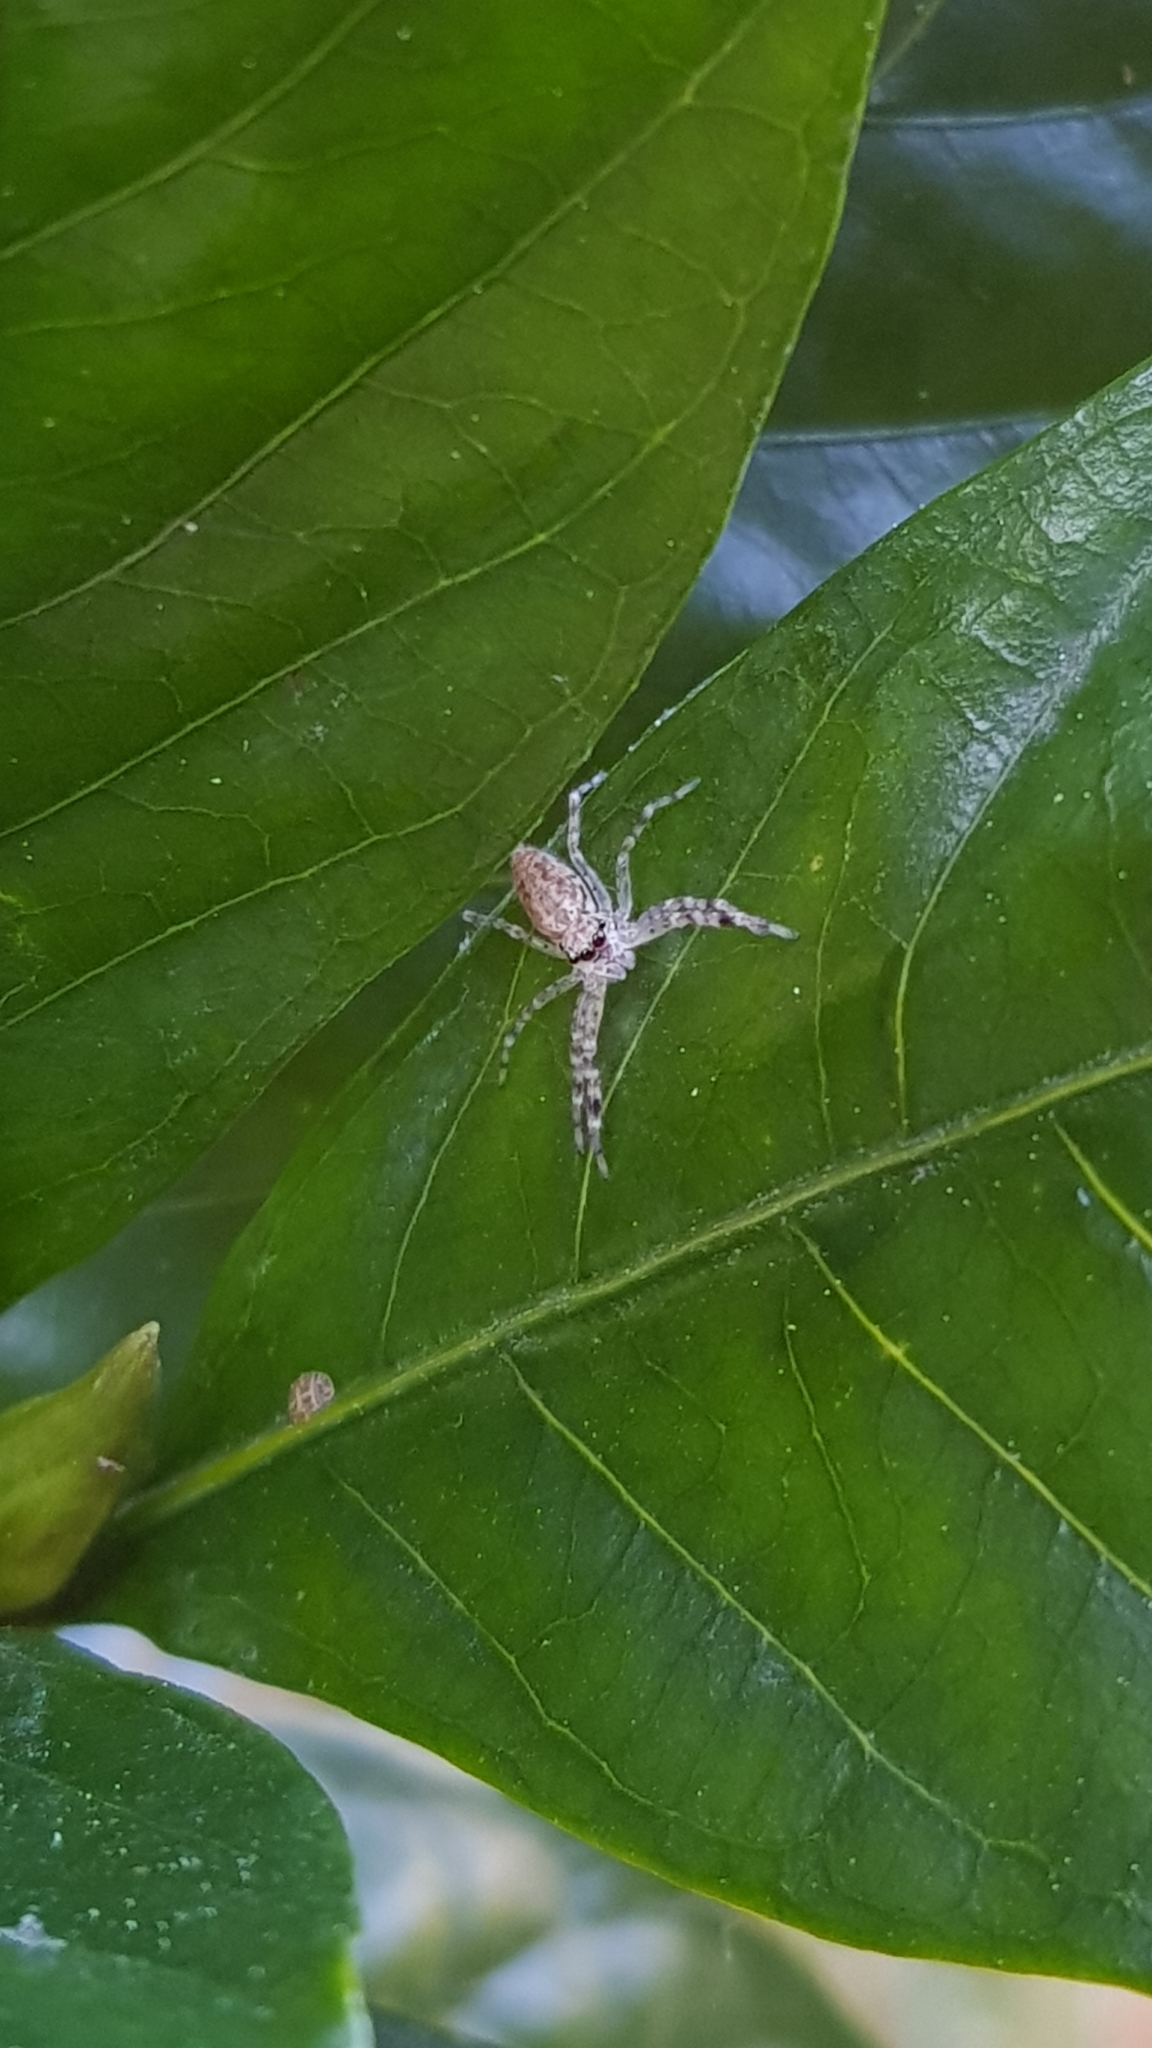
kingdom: Animalia
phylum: Arthropoda
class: Arachnida
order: Araneae
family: Salticidae
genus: Helpis
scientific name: Helpis minitabunda
